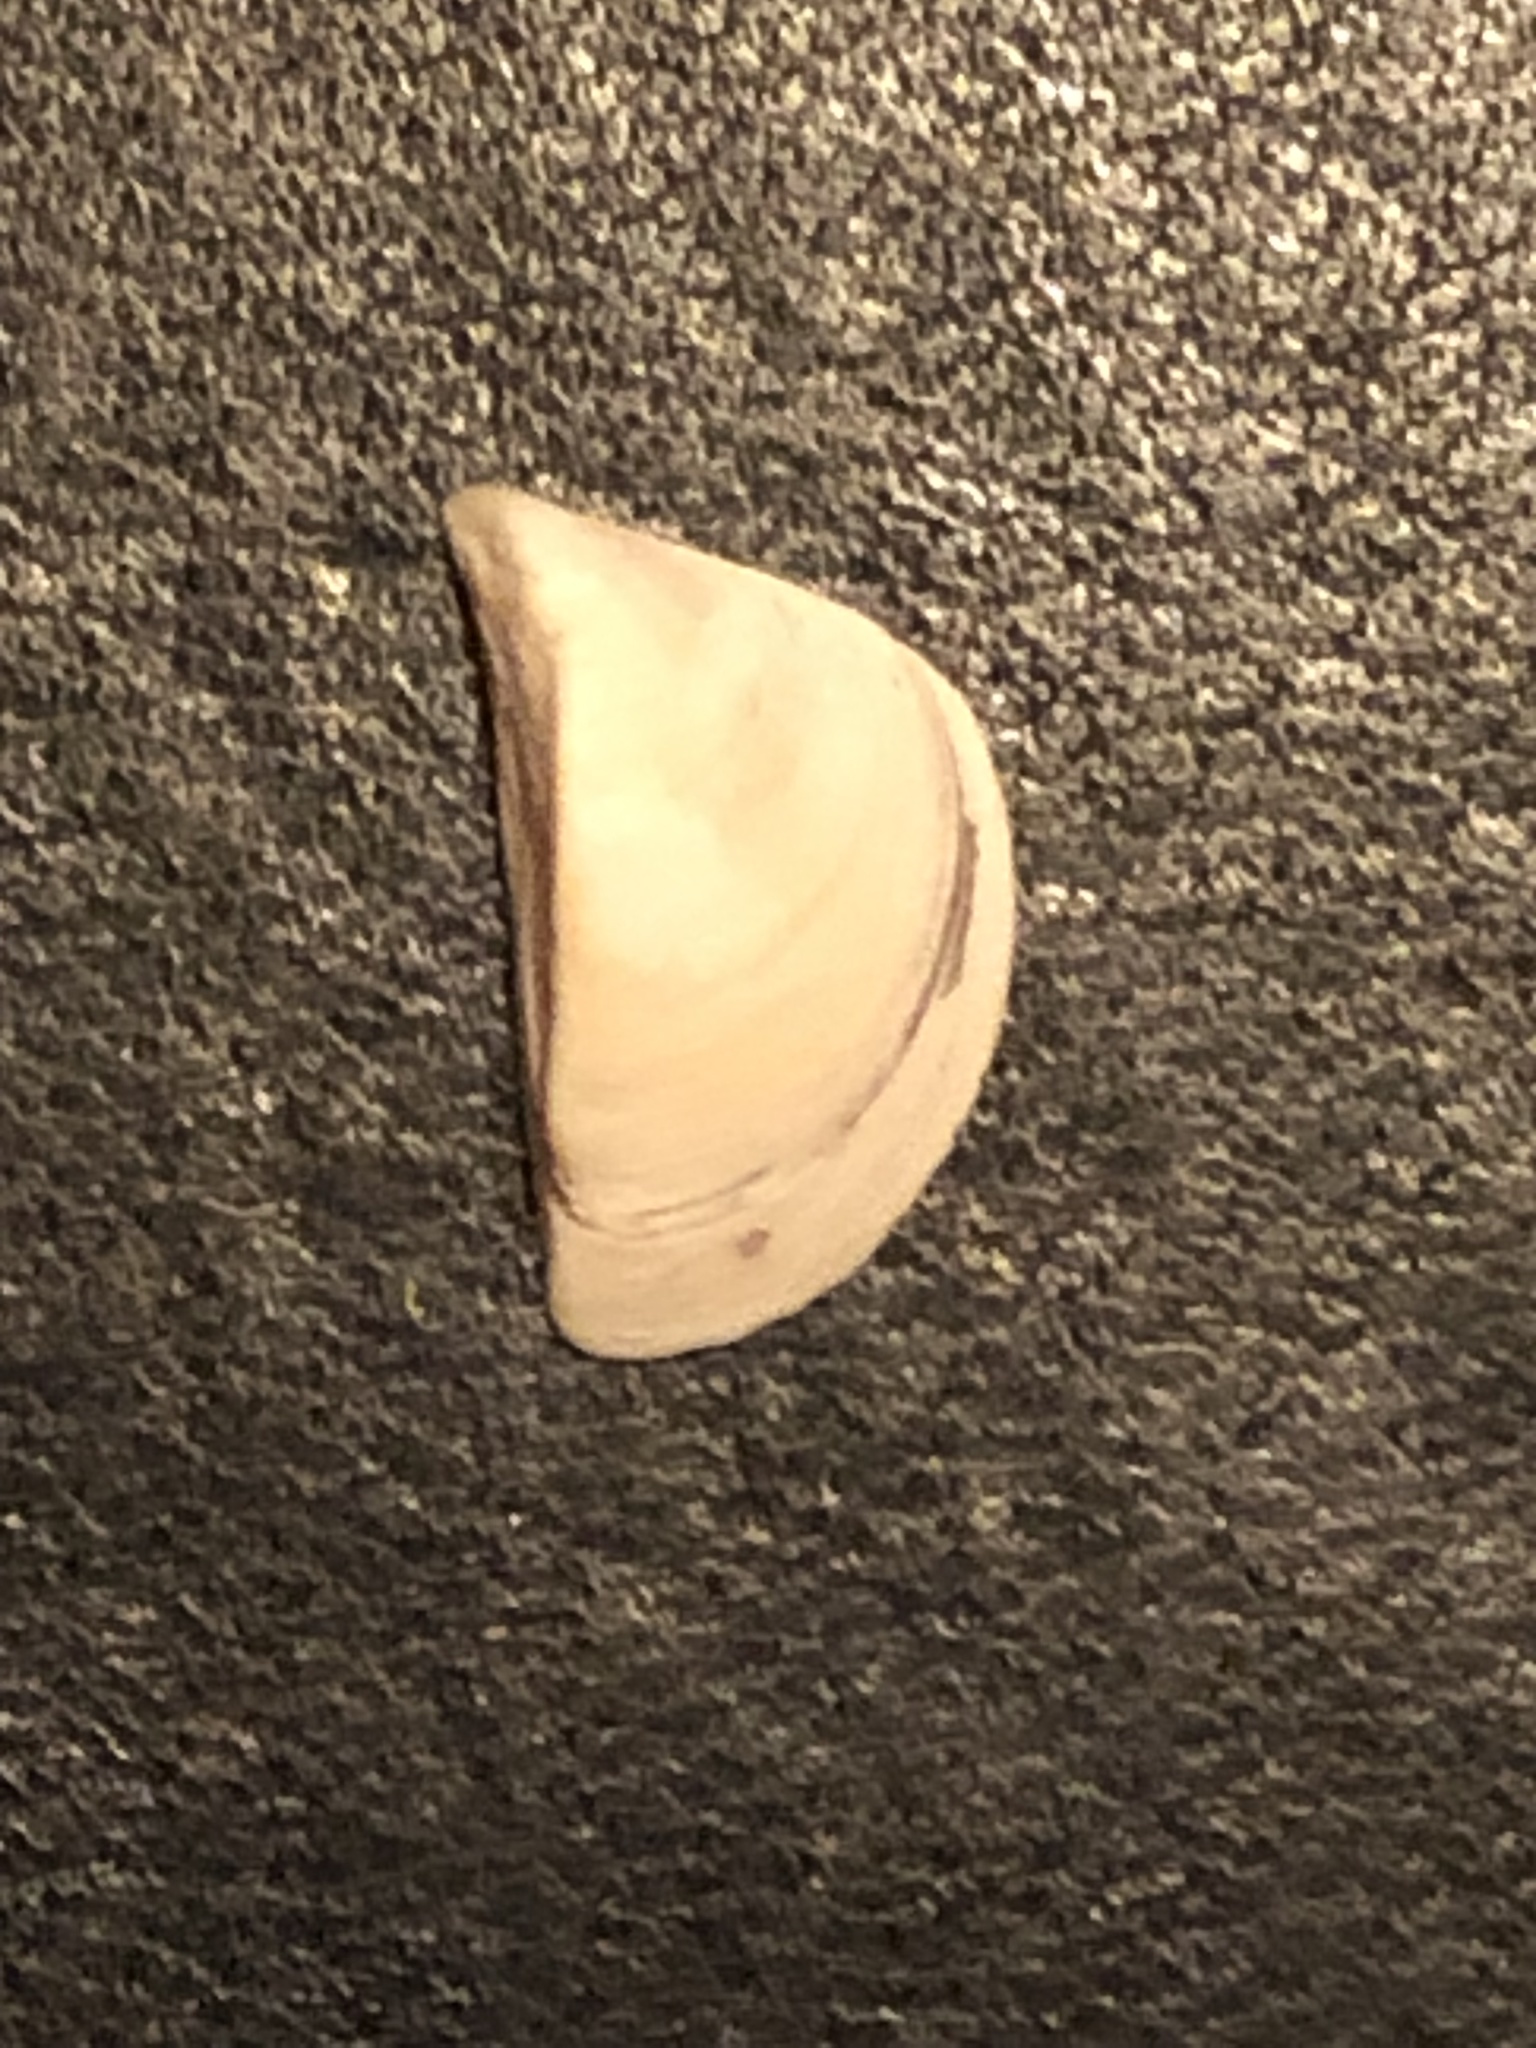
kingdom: Animalia
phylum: Mollusca
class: Bivalvia
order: Myida
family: Dreissenidae
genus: Dreissena
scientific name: Dreissena polymorpha
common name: Zebra mussel
